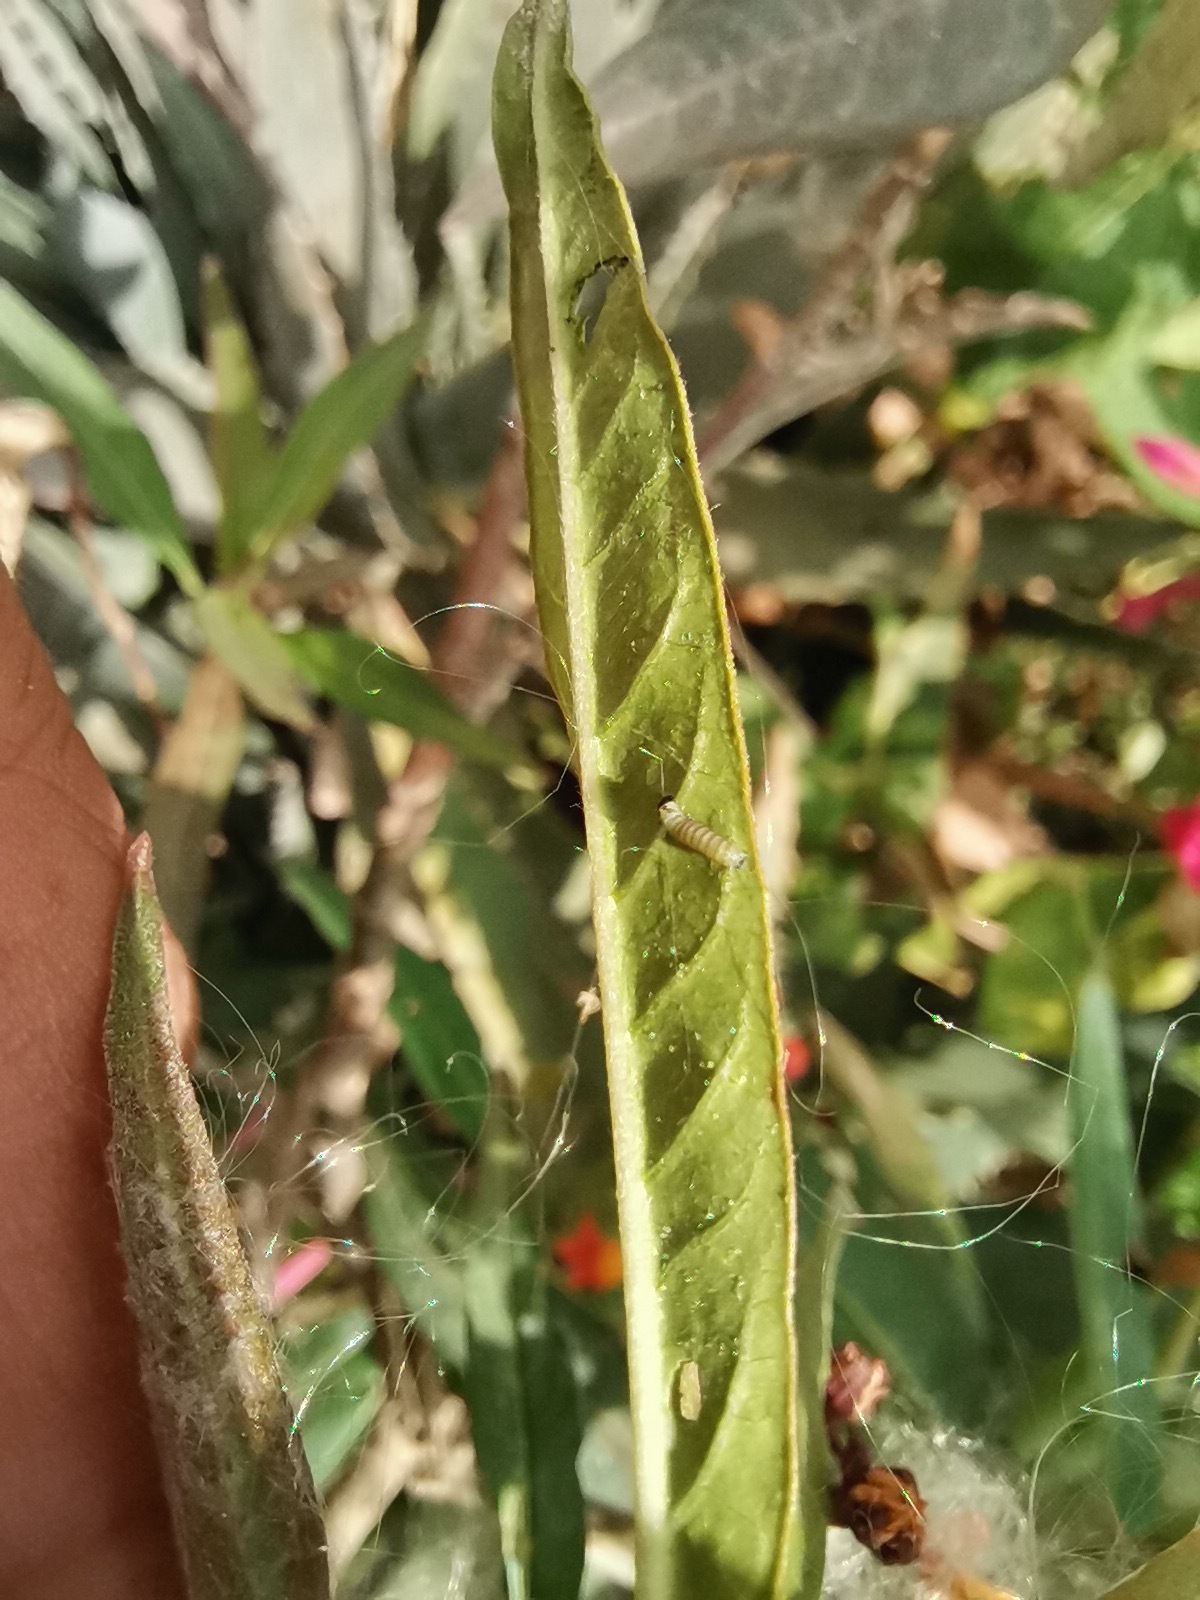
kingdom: Animalia
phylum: Arthropoda
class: Insecta
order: Lepidoptera
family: Nymphalidae
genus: Danaus
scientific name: Danaus plexippus
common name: Monarch
